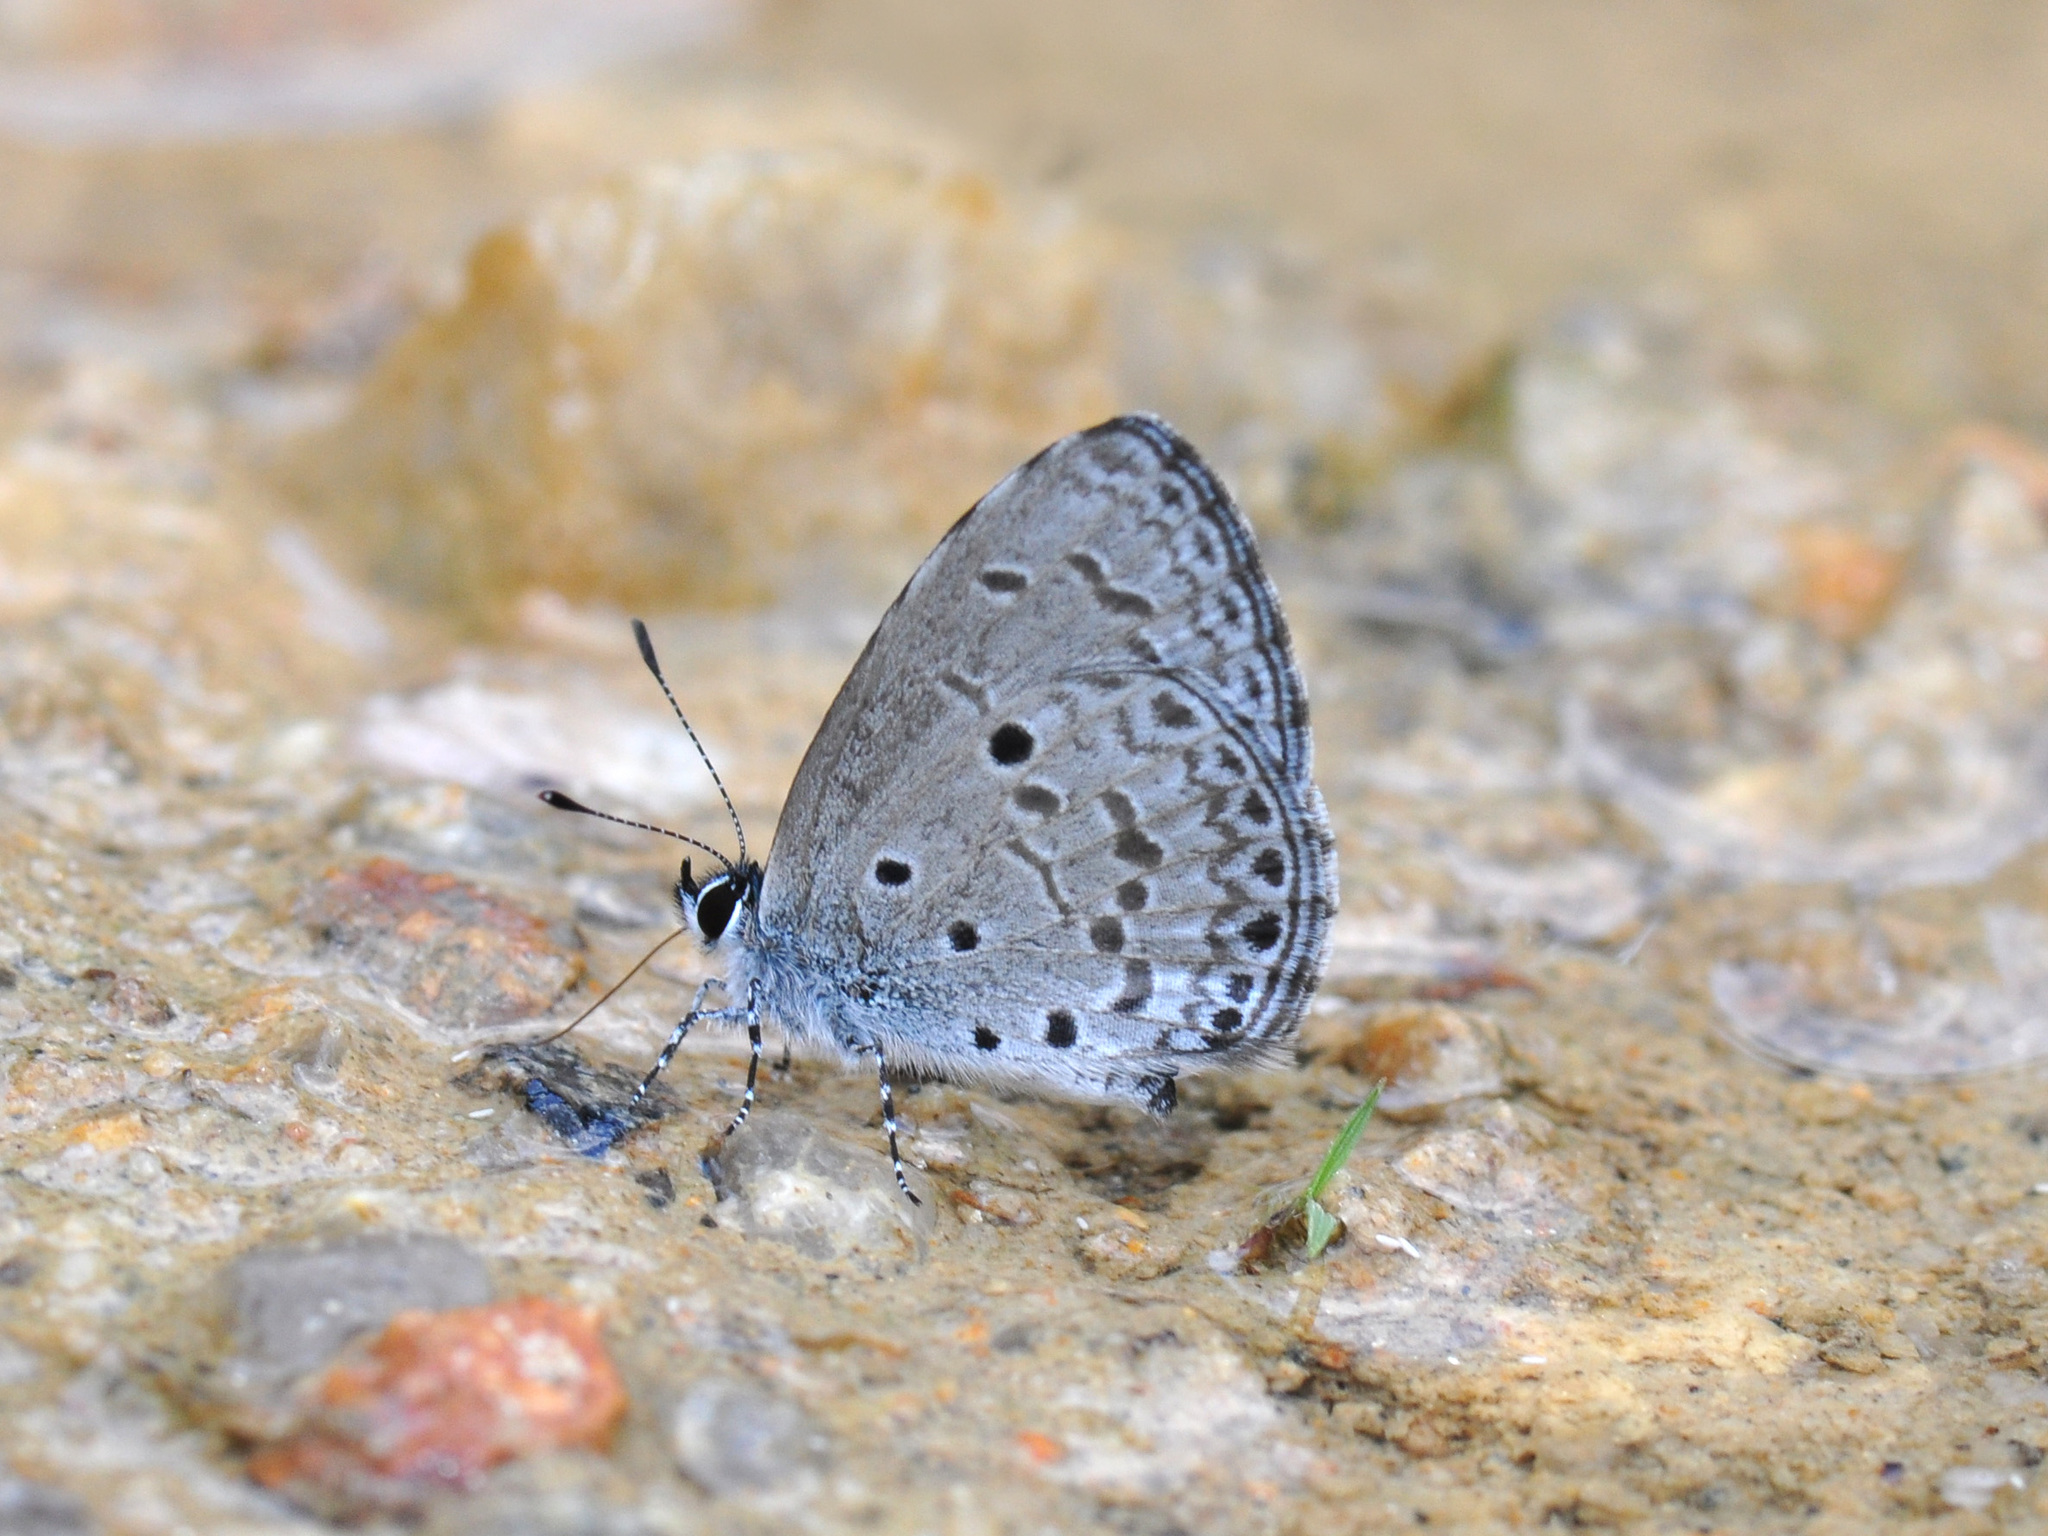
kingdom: Animalia
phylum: Arthropoda
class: Insecta
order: Lepidoptera
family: Lycaenidae
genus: Celastrina
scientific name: Celastrina lavendularis
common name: Plain hedge blue
